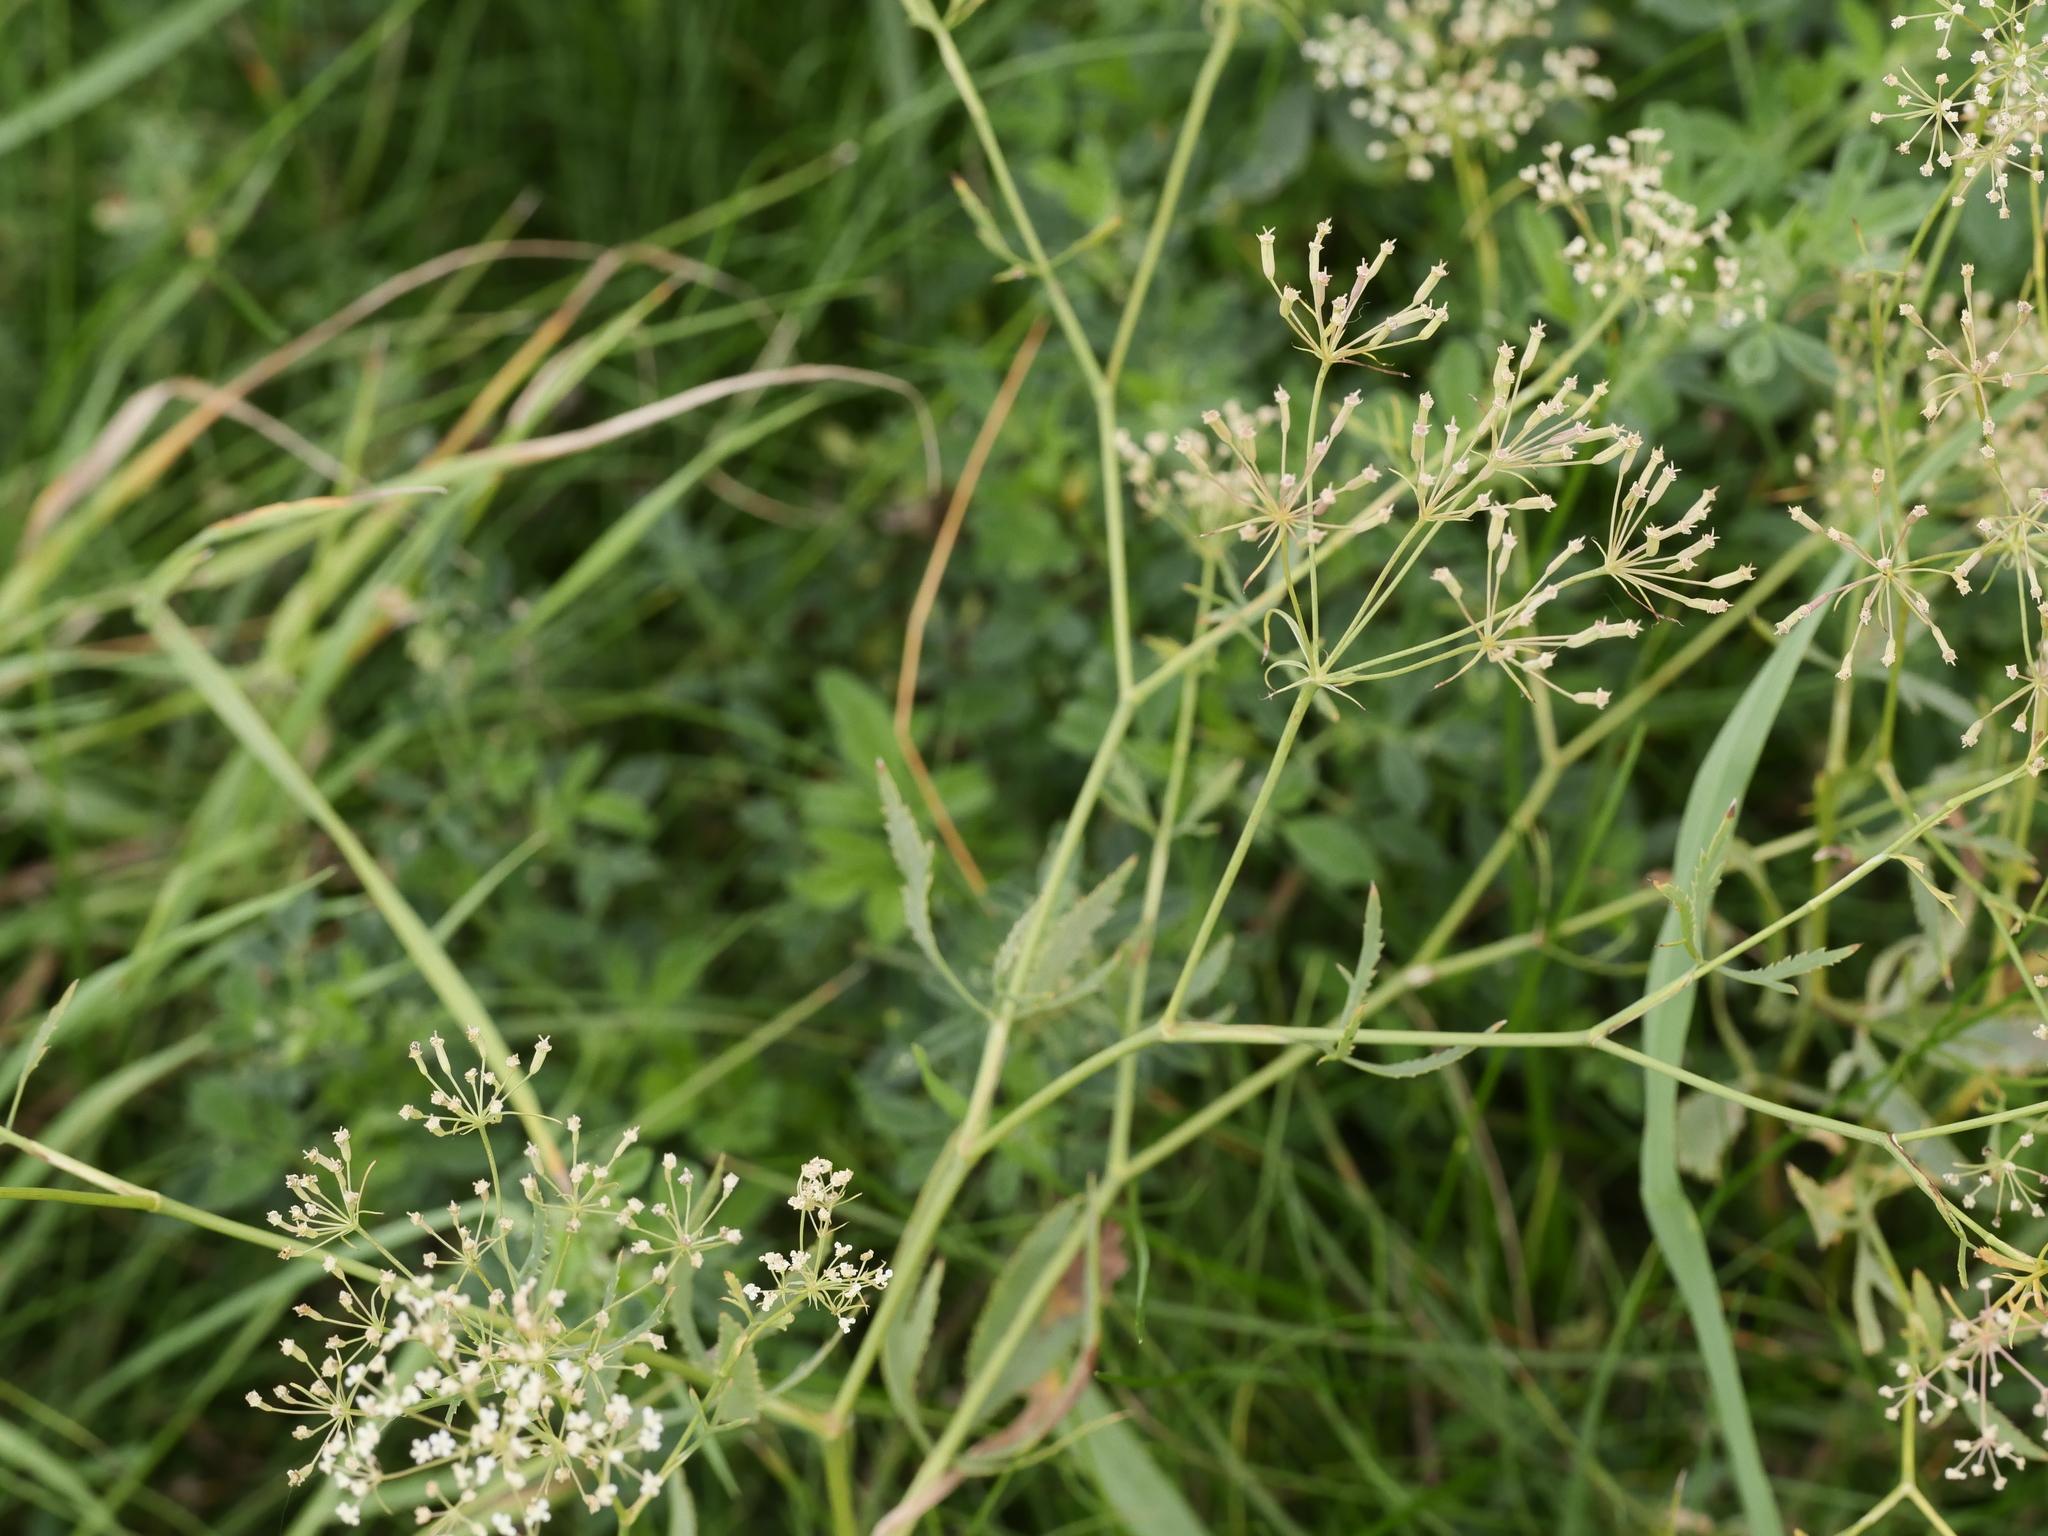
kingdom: Plantae
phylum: Tracheophyta
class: Magnoliopsida
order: Apiales
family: Apiaceae
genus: Falcaria
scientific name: Falcaria vulgaris
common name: Longleaf
